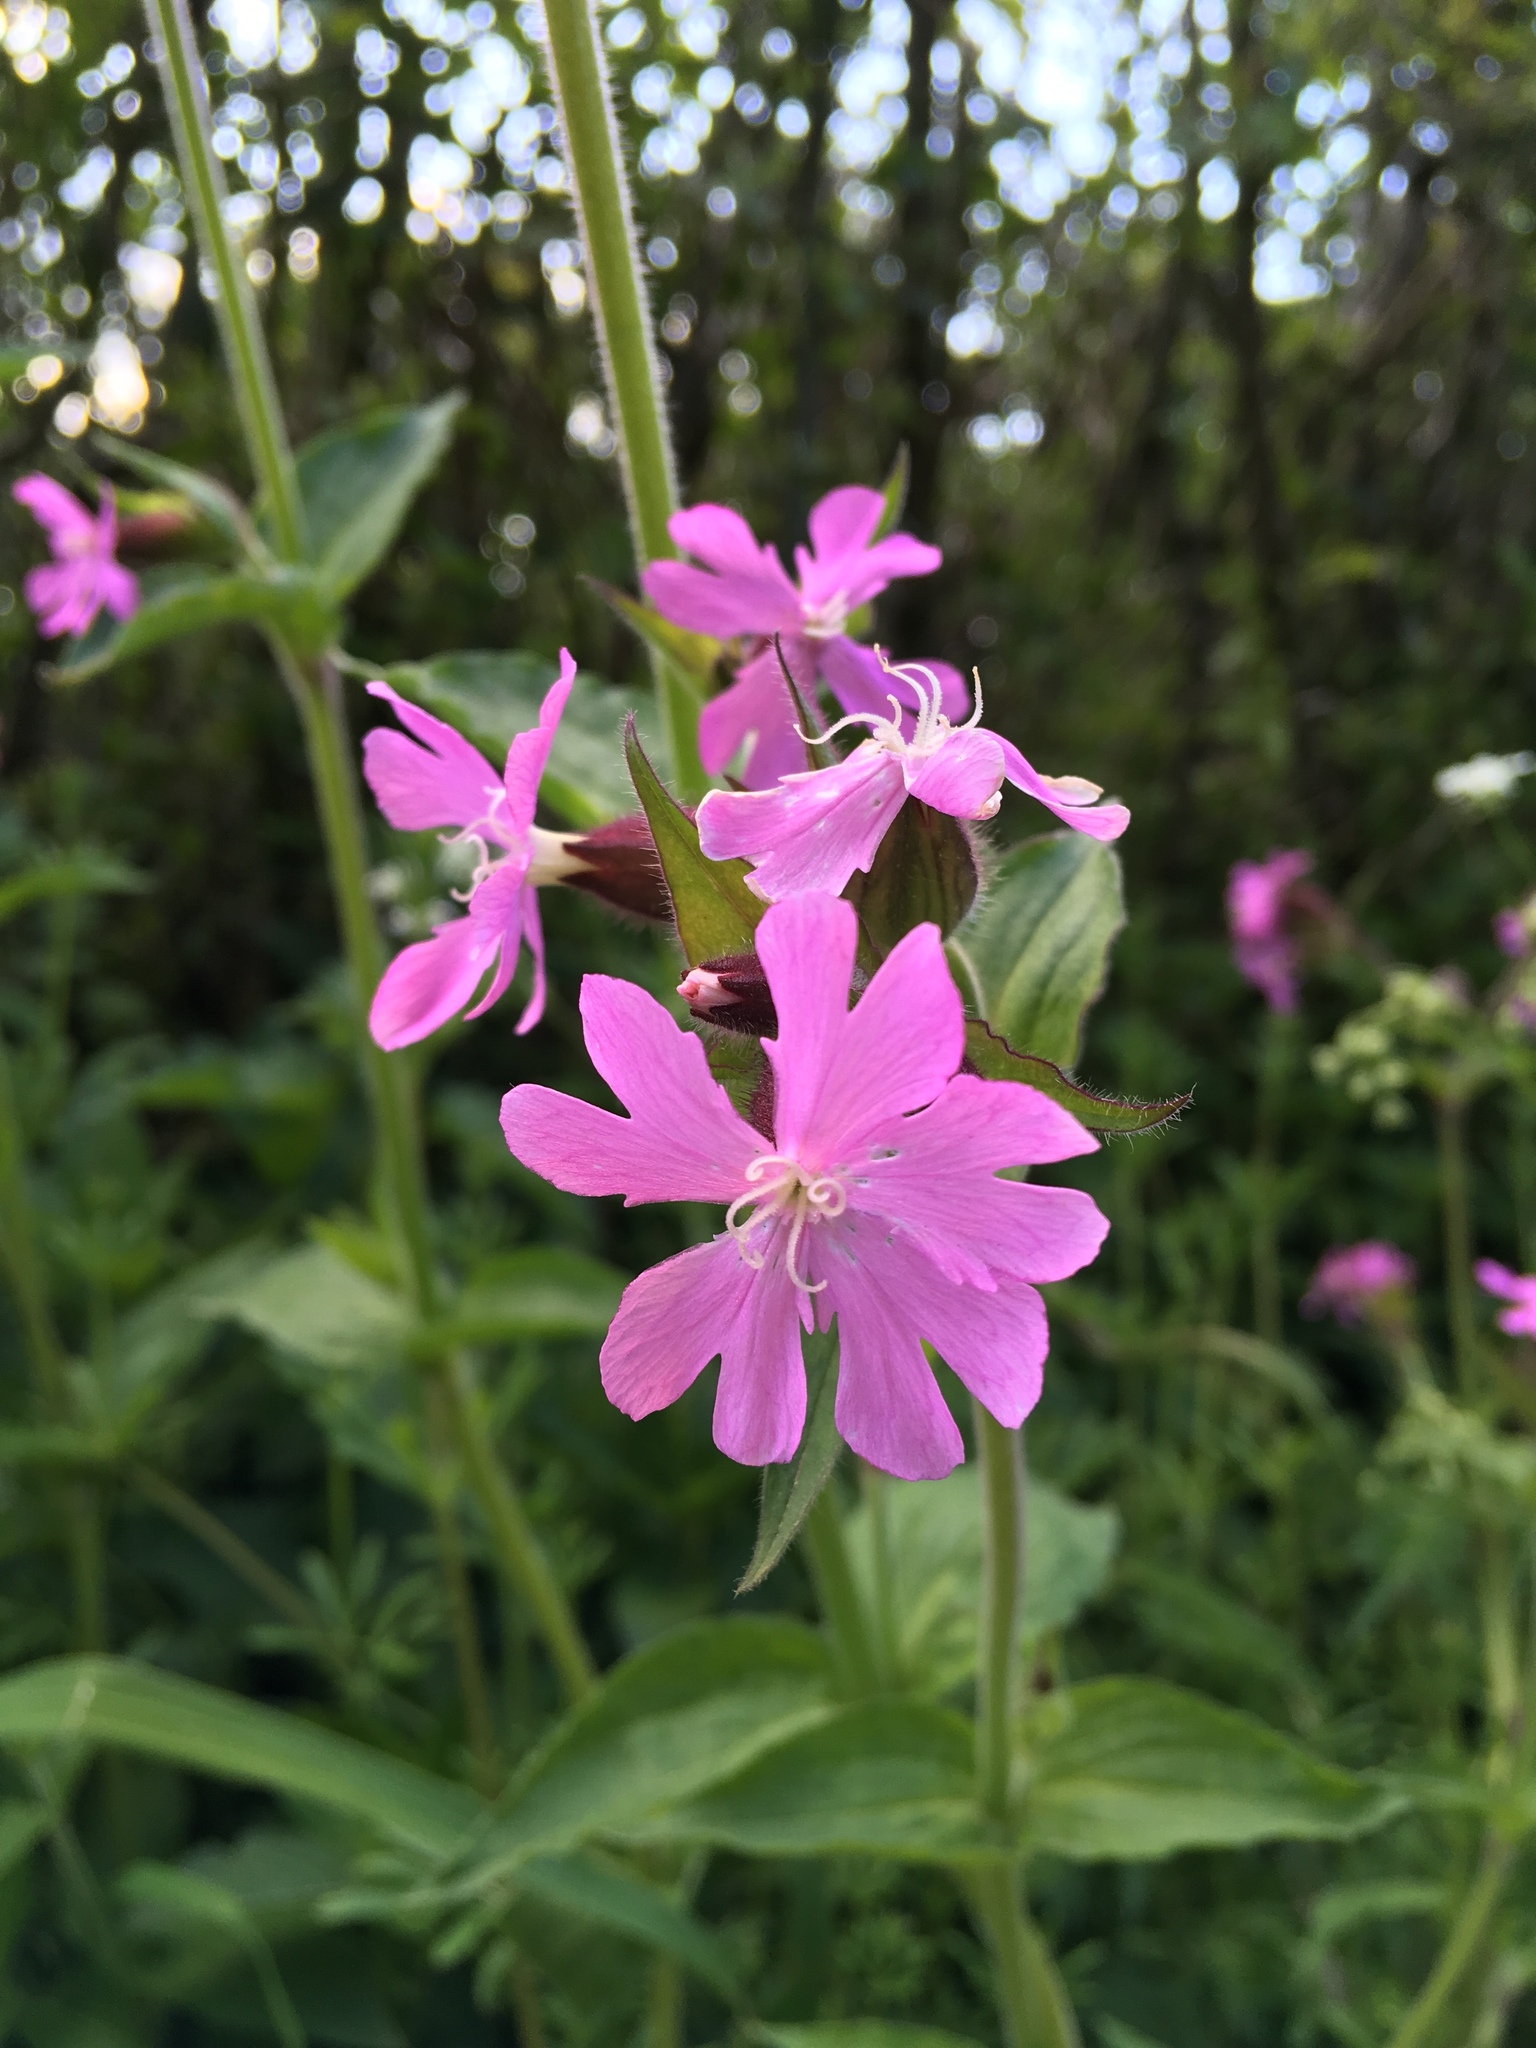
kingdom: Plantae
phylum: Tracheophyta
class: Magnoliopsida
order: Caryophyllales
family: Caryophyllaceae
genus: Silene
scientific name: Silene dioica
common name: Red campion
